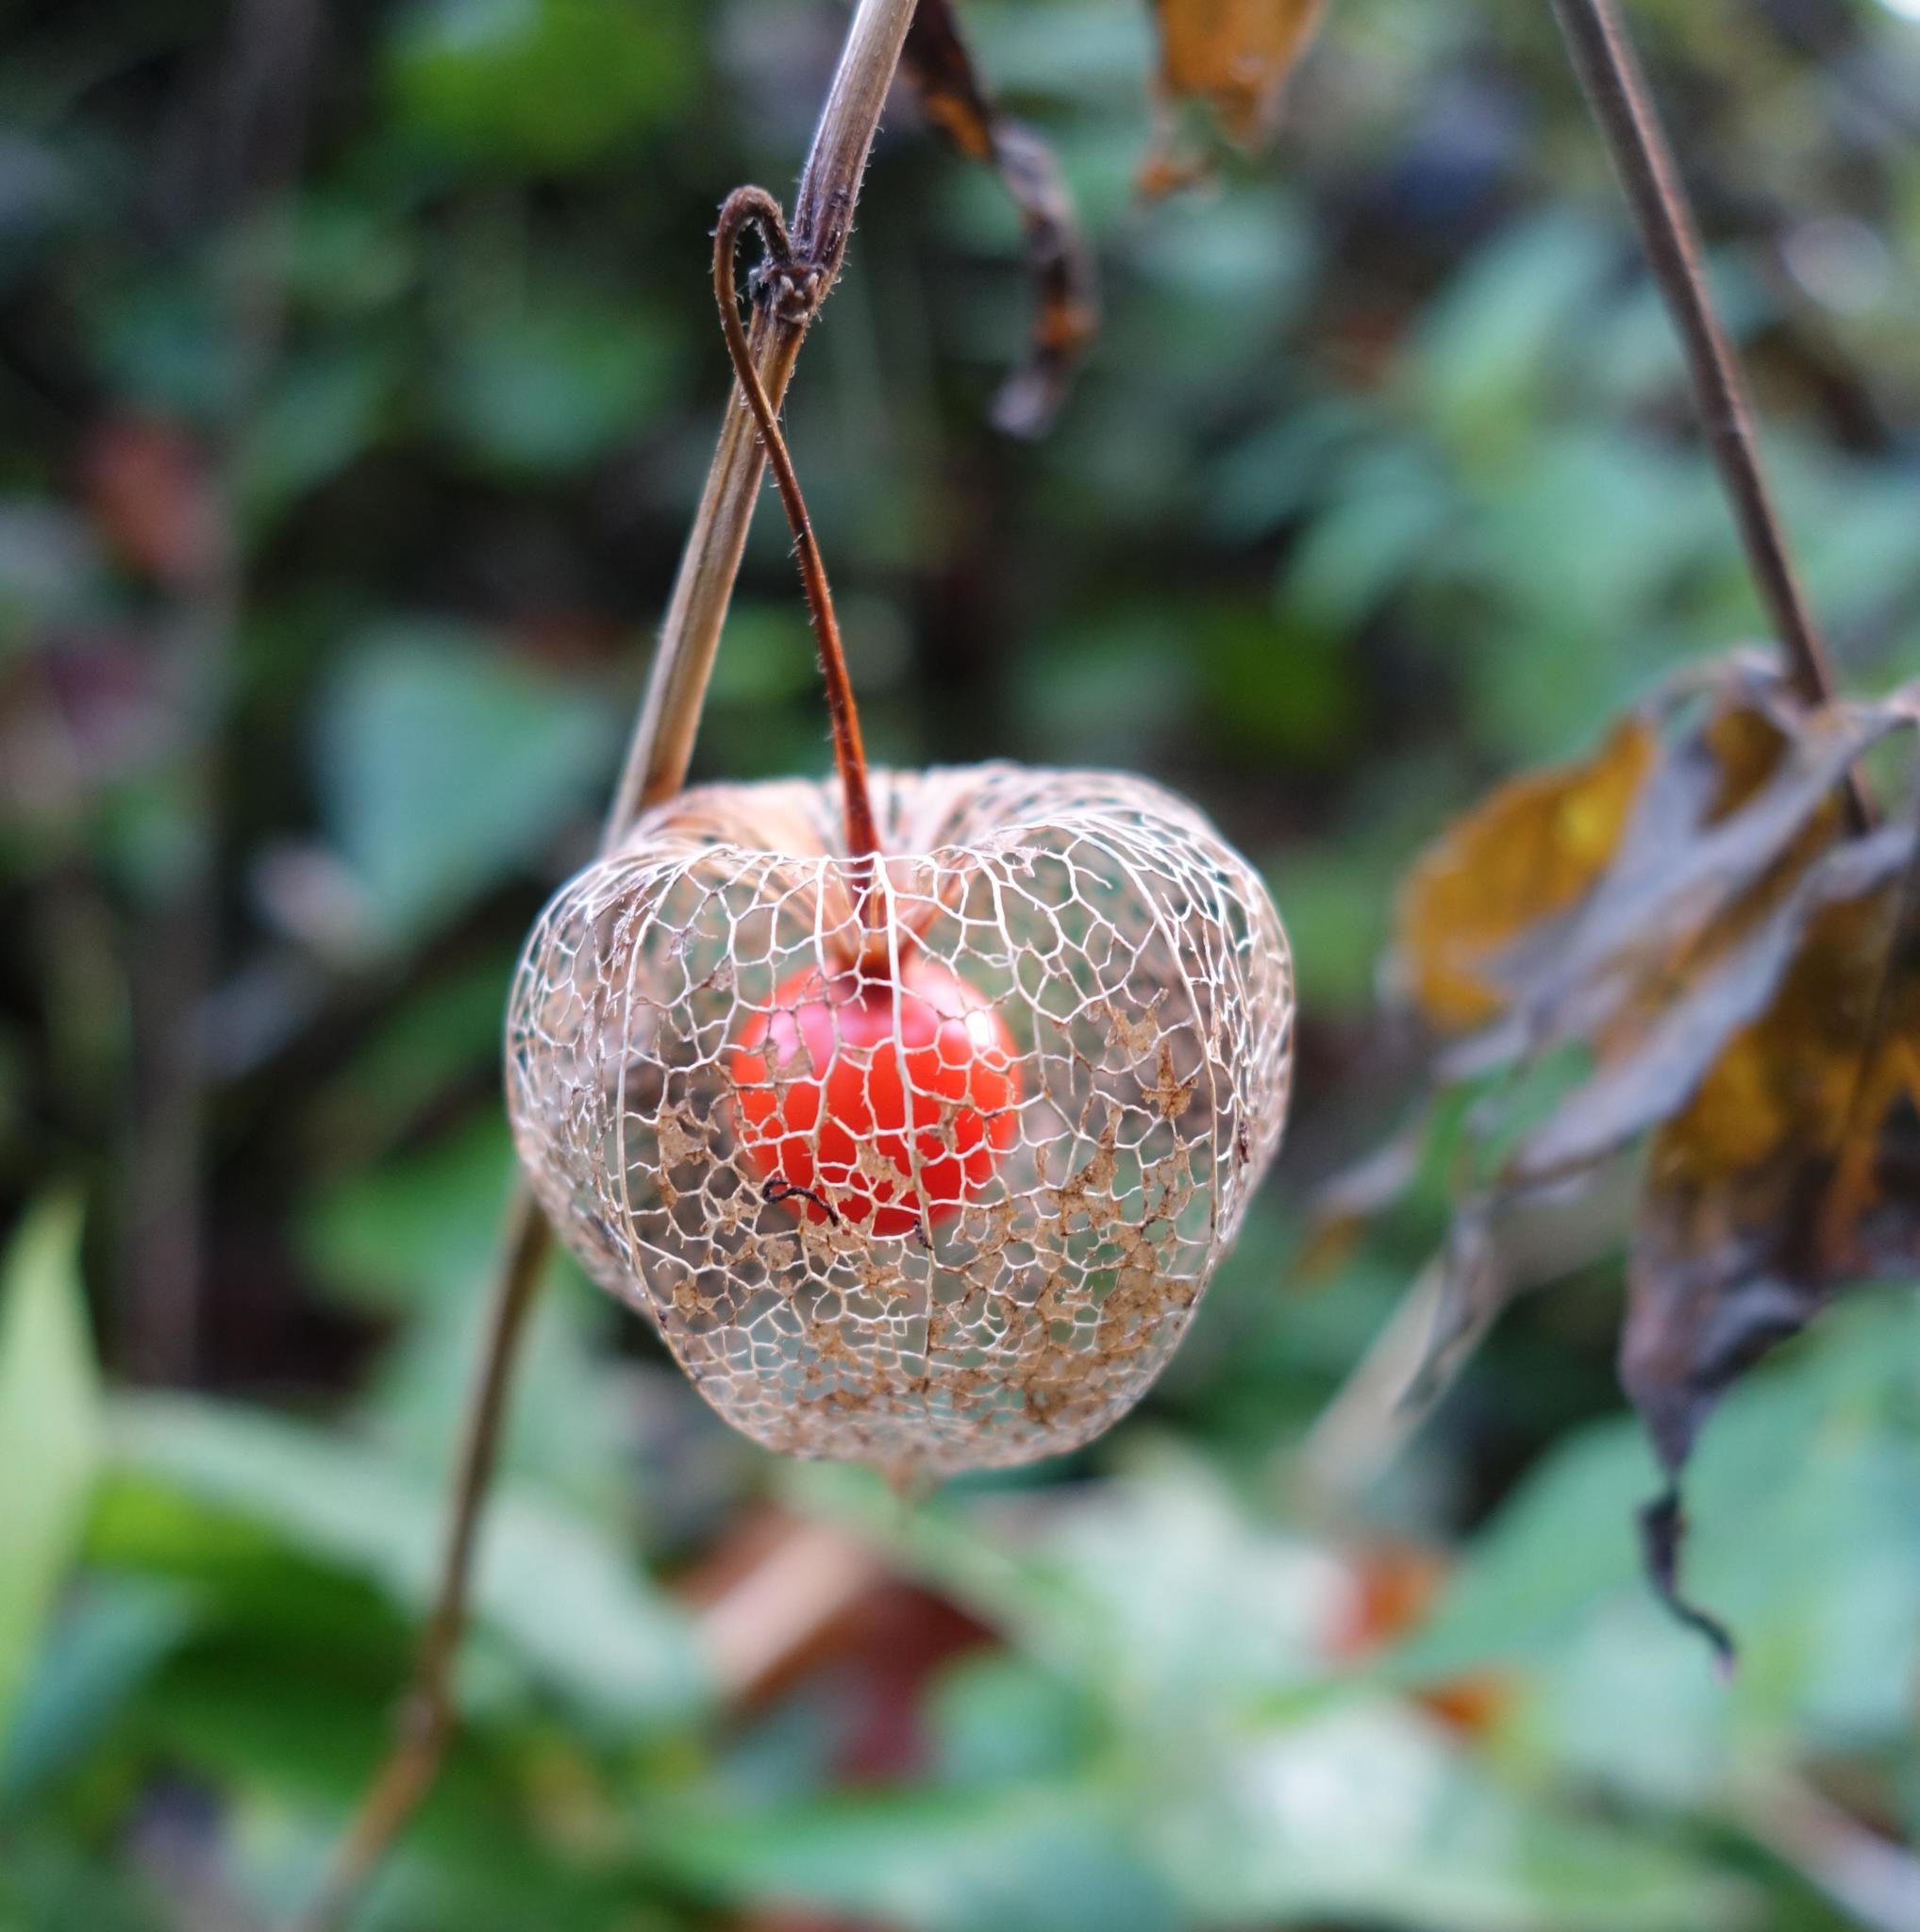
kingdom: Plantae
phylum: Tracheophyta
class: Magnoliopsida
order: Solanales
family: Solanaceae
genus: Alkekengi
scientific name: Alkekengi officinarum
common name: Japanese-lantern
